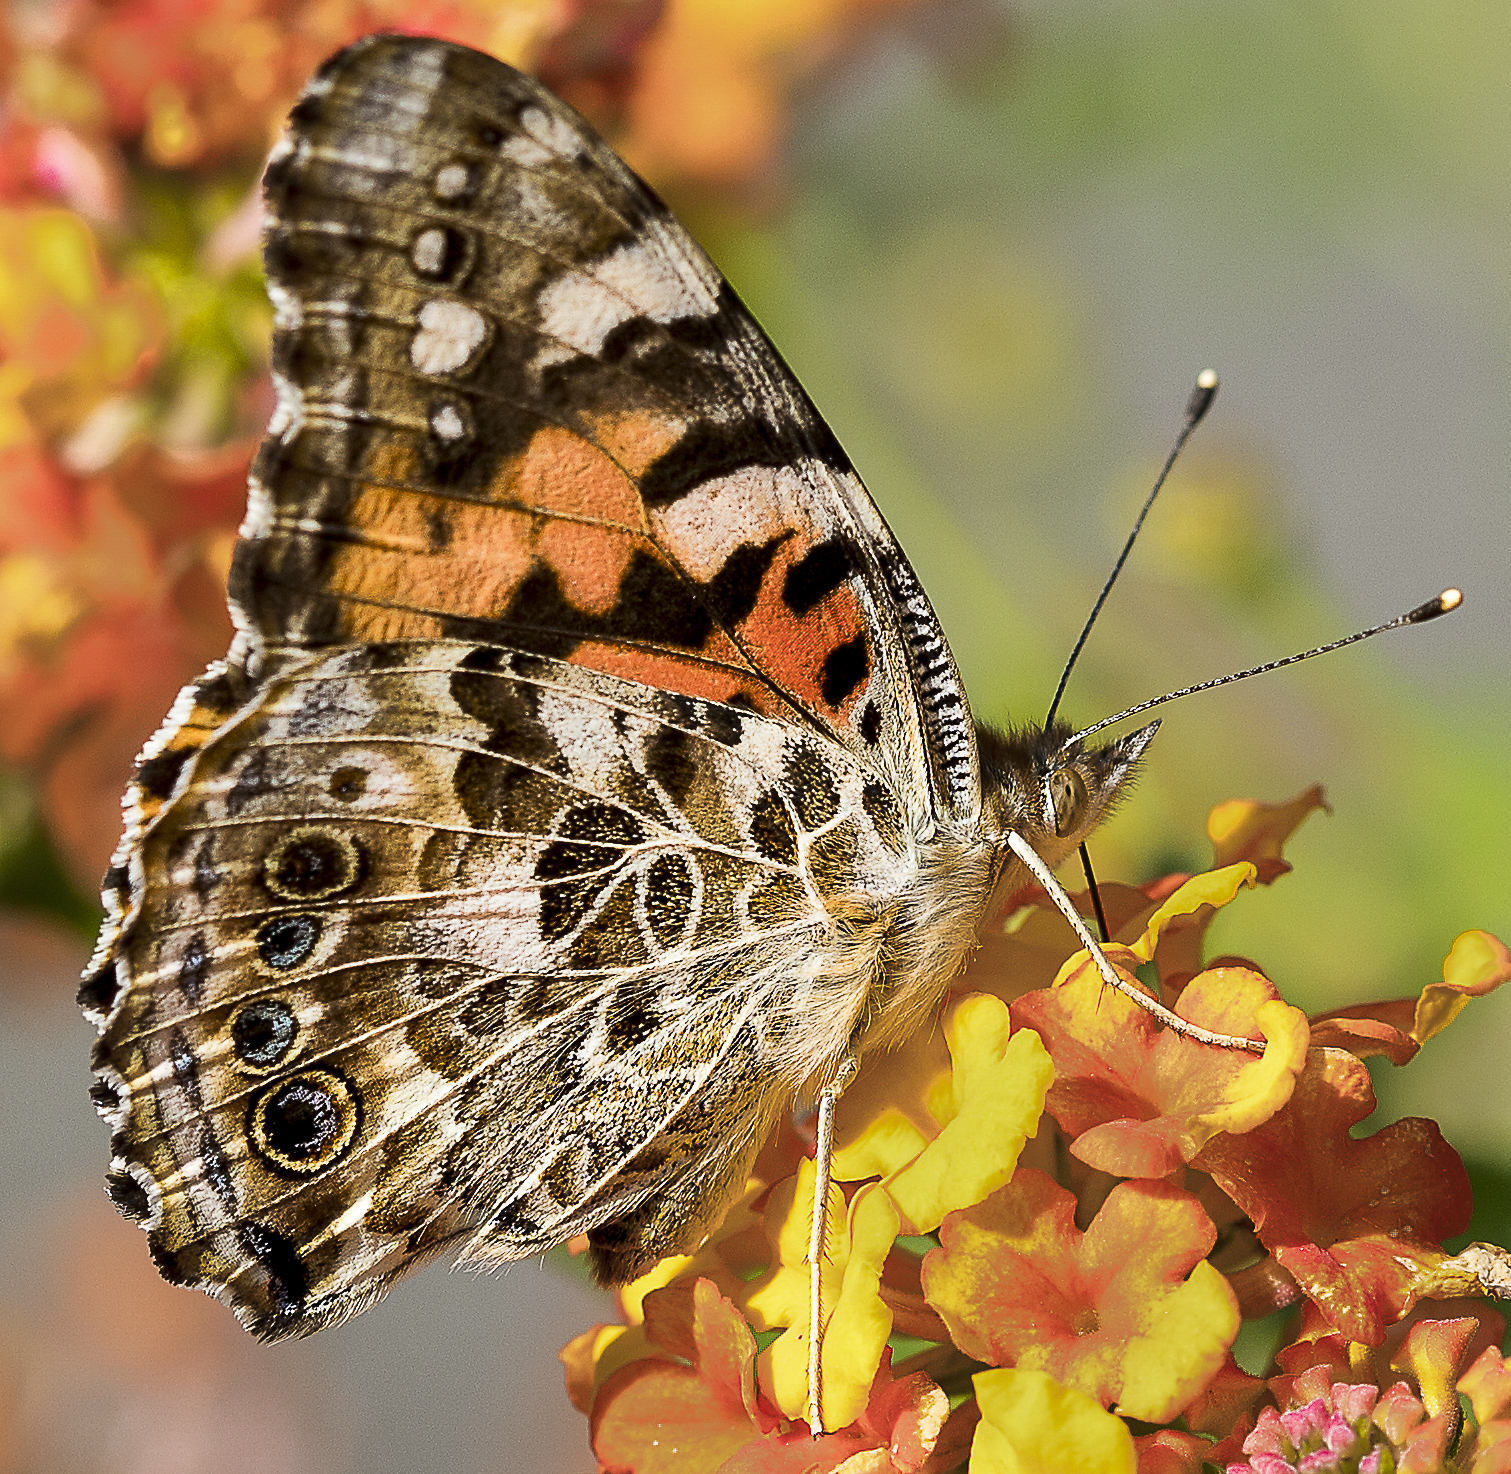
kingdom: Animalia
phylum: Arthropoda
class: Insecta
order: Lepidoptera
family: Nymphalidae
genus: Vanessa
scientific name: Vanessa cardui
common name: Painted lady
